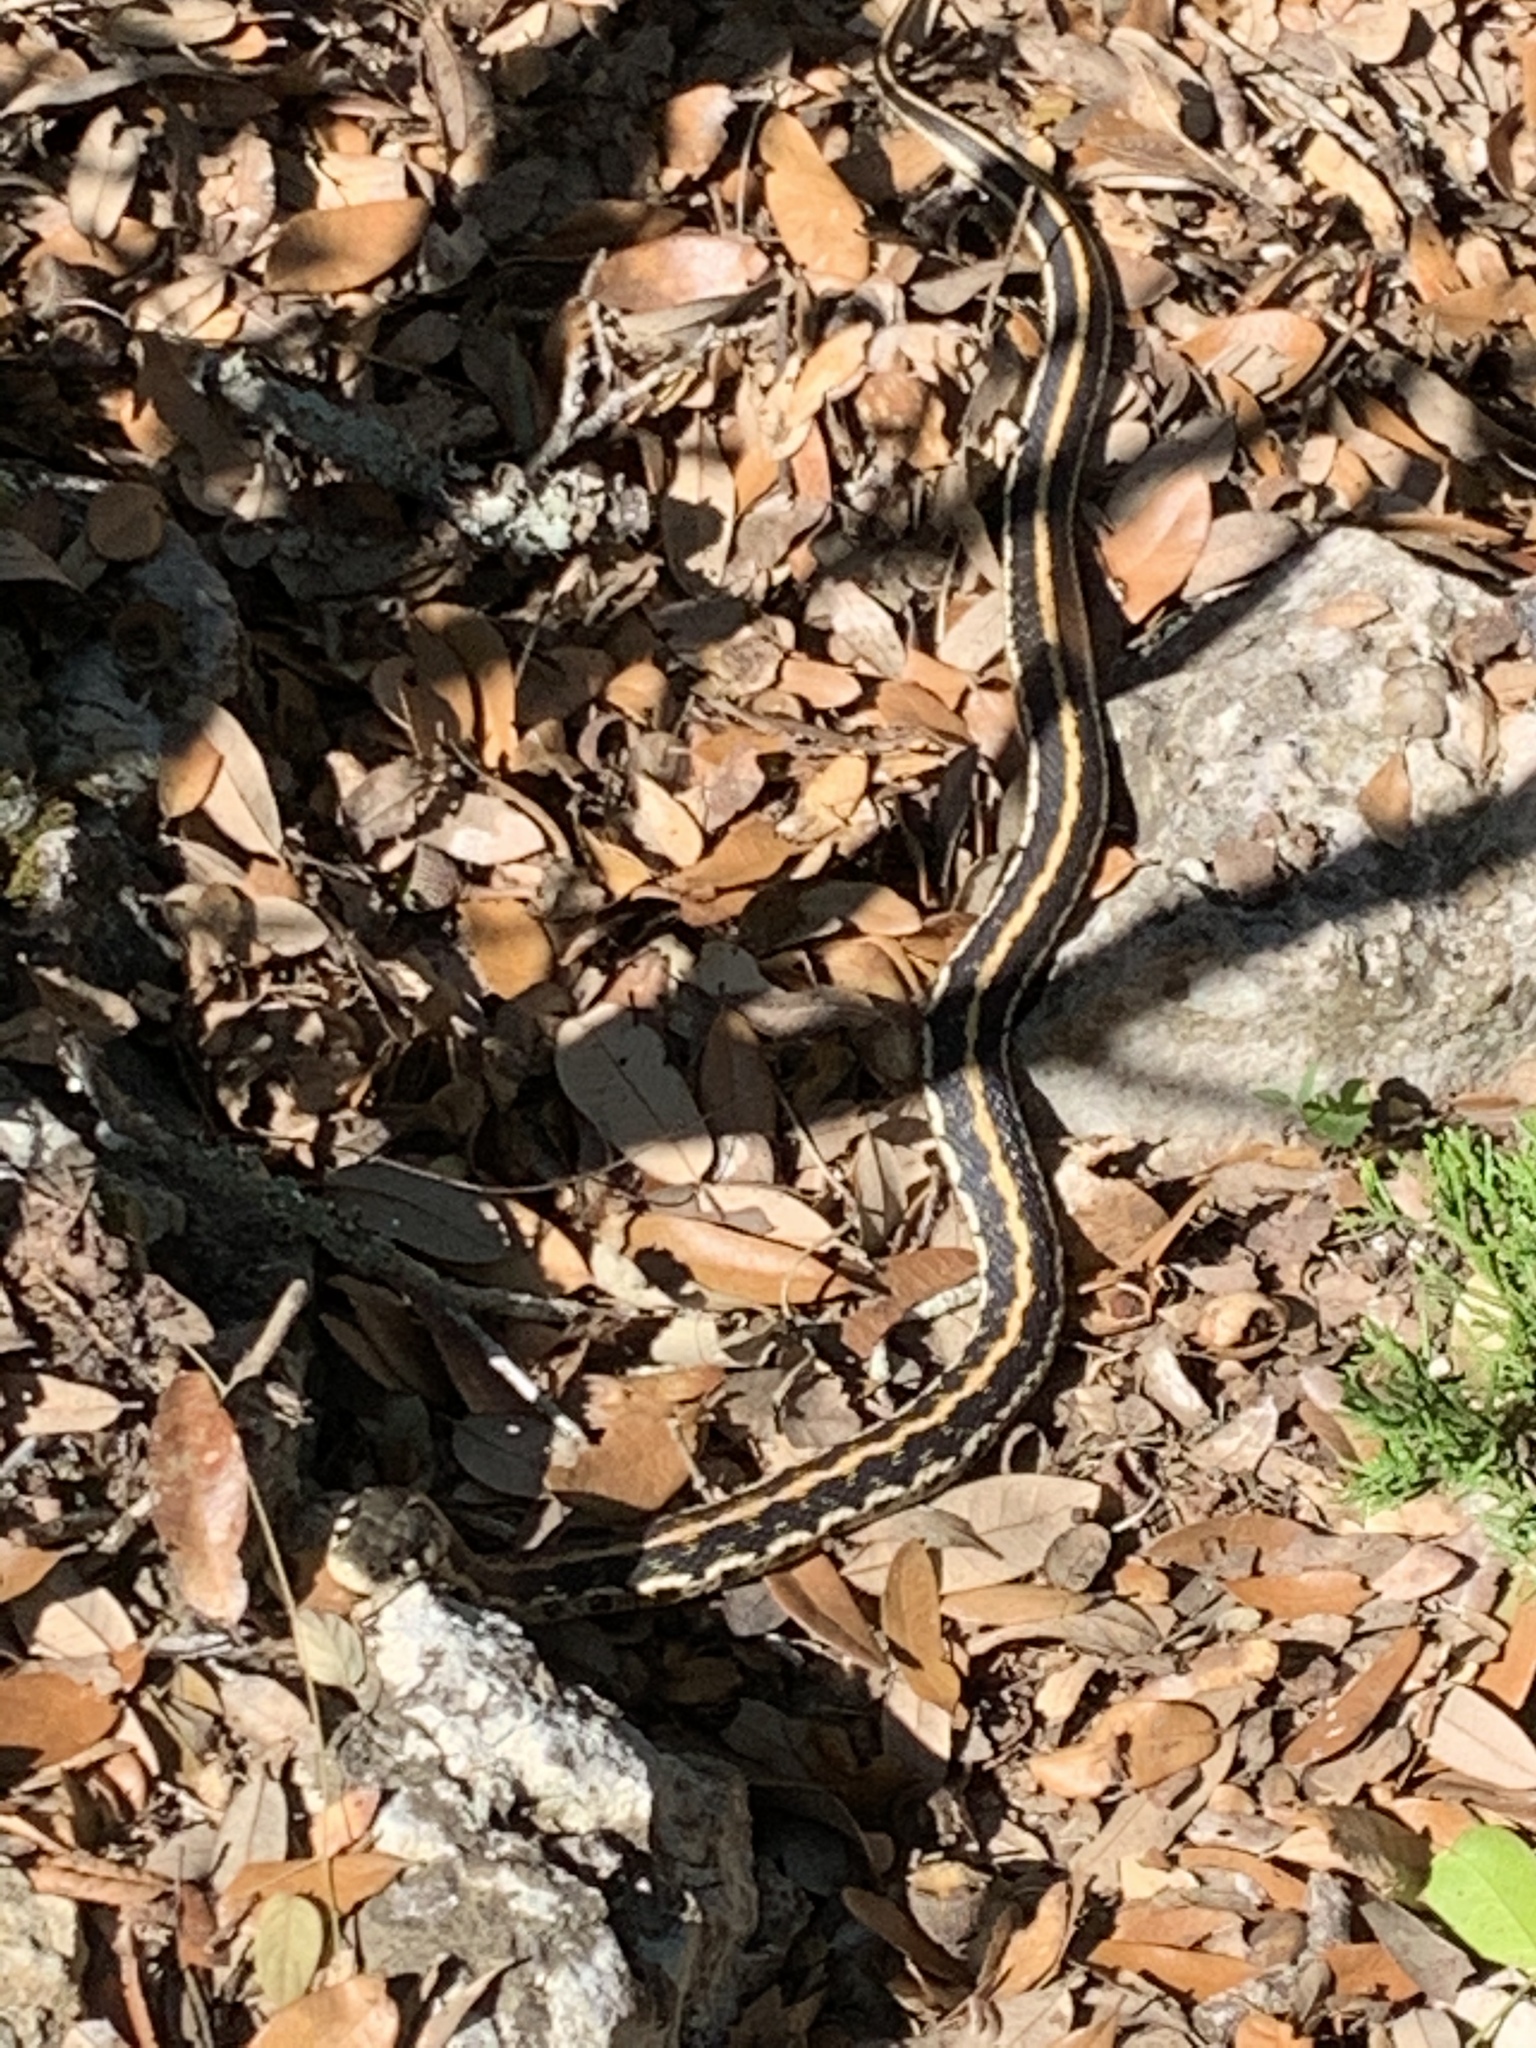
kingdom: Animalia
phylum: Chordata
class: Squamata
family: Colubridae
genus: Thamnophis
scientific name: Thamnophis cyrtopsis
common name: Black-necked gartersnake
